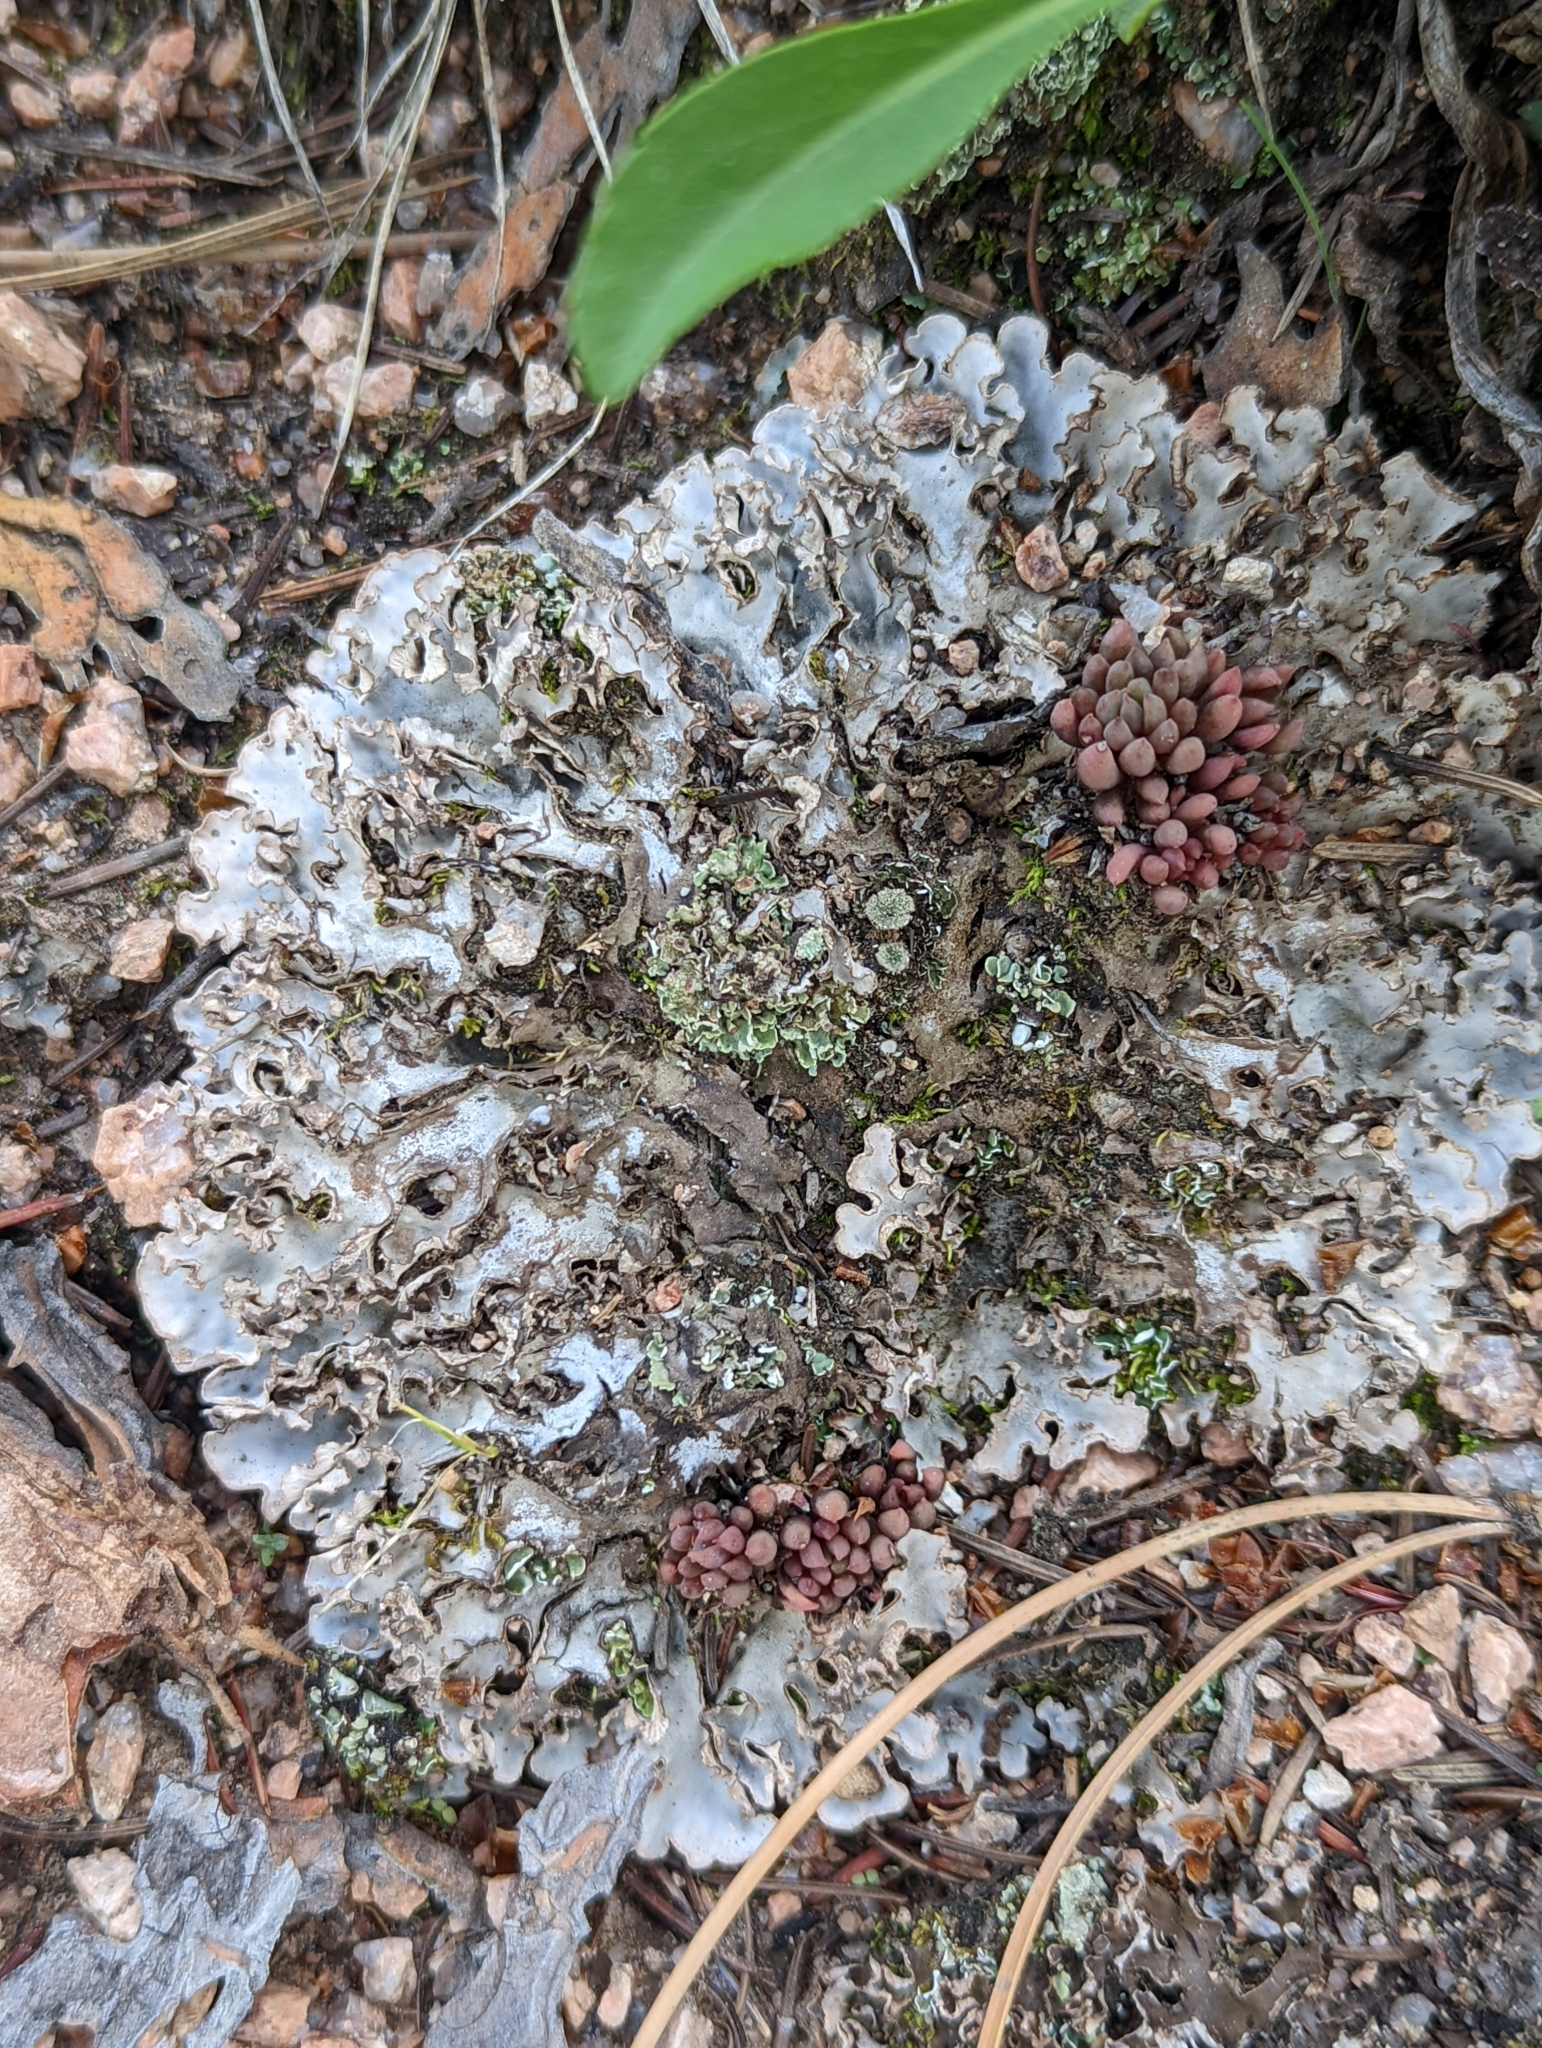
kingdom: Fungi
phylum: Ascomycota
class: Lecanoromycetes
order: Peltigerales
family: Peltigeraceae
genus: Peltigera
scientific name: Peltigera rufescens
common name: Field dog lichen
